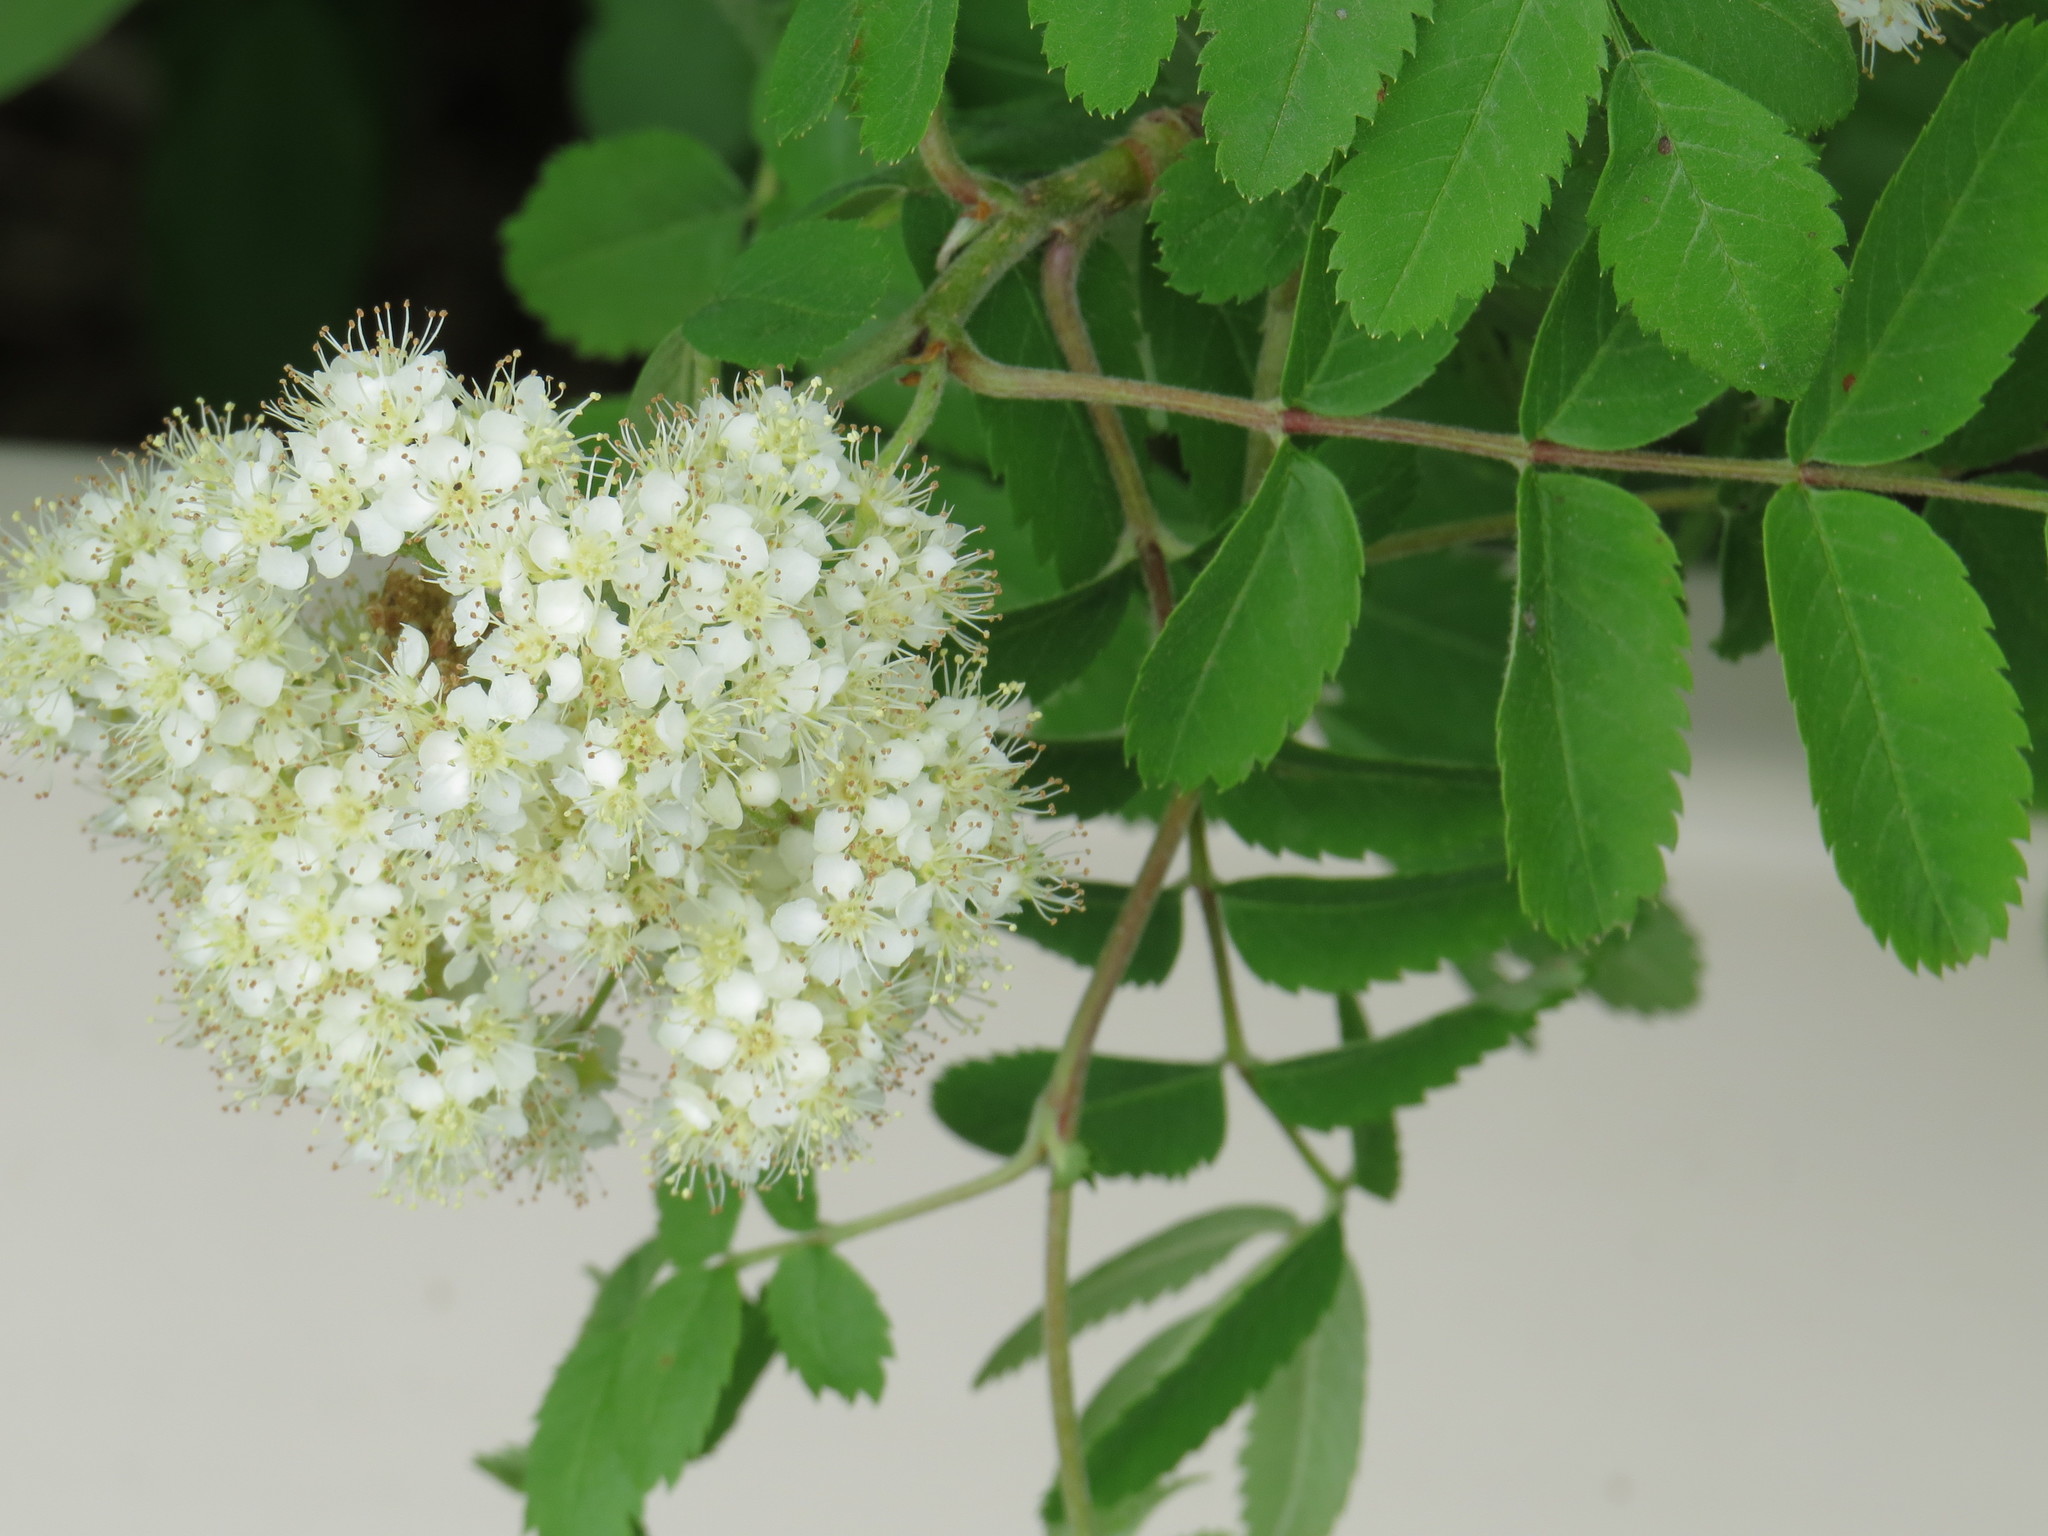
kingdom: Plantae
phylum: Tracheophyta
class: Magnoliopsida
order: Rosales
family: Rosaceae
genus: Sorbus
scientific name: Sorbus aucuparia
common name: Rowan
